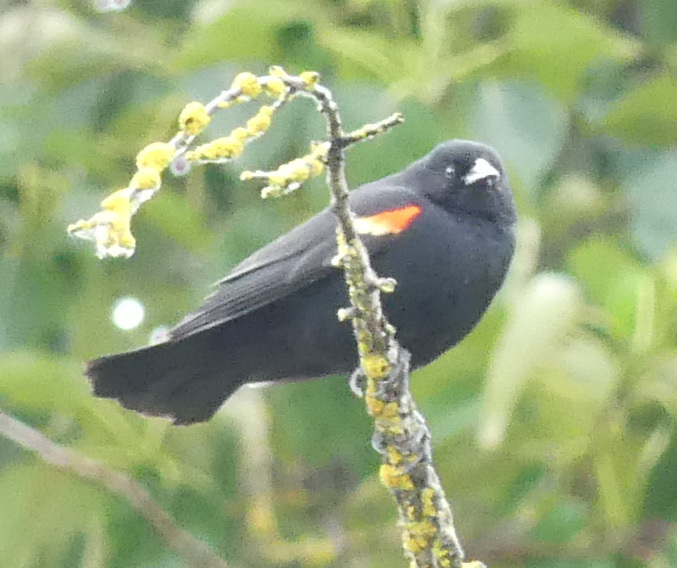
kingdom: Animalia
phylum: Chordata
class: Aves
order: Passeriformes
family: Icteridae
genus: Agelaius
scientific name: Agelaius phoeniceus
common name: Red-winged blackbird
